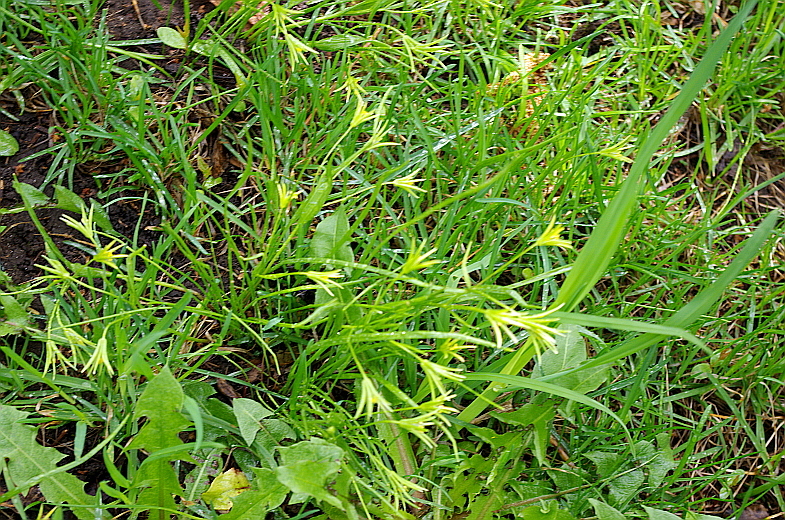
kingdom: Plantae
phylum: Tracheophyta
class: Liliopsida
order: Liliales
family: Liliaceae
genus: Gagea
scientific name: Gagea minima
